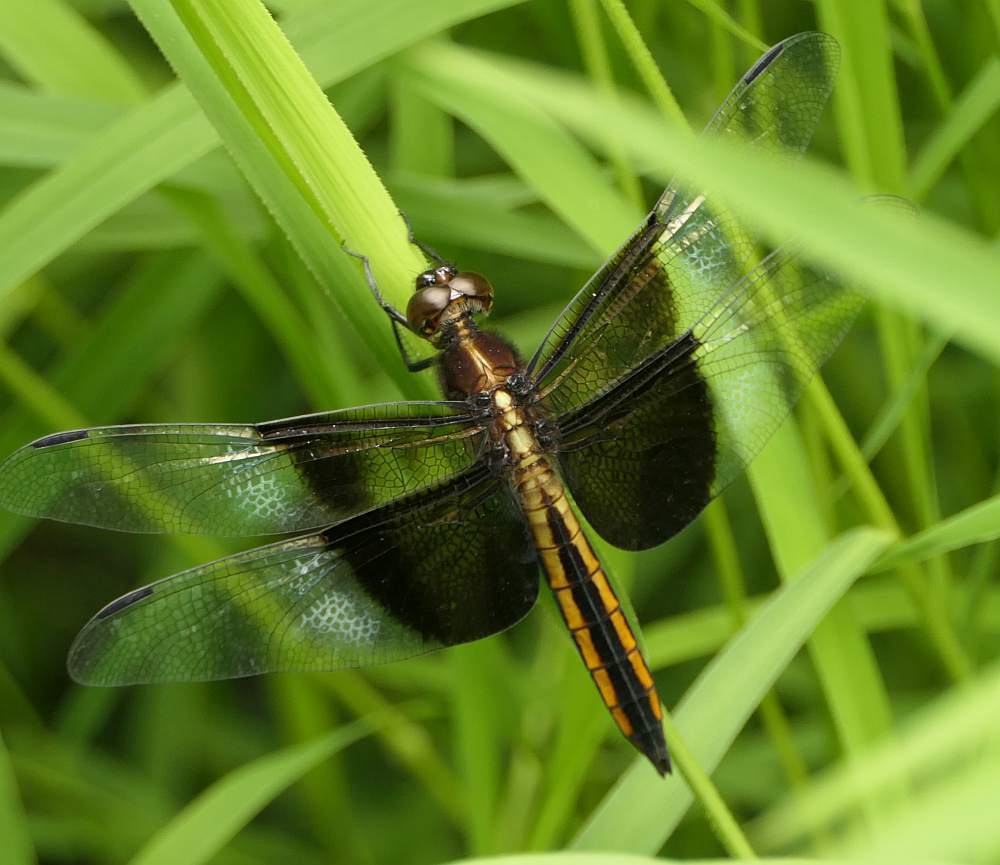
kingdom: Animalia
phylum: Arthropoda
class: Insecta
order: Odonata
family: Libellulidae
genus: Libellula
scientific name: Libellula luctuosa
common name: Widow skimmer
